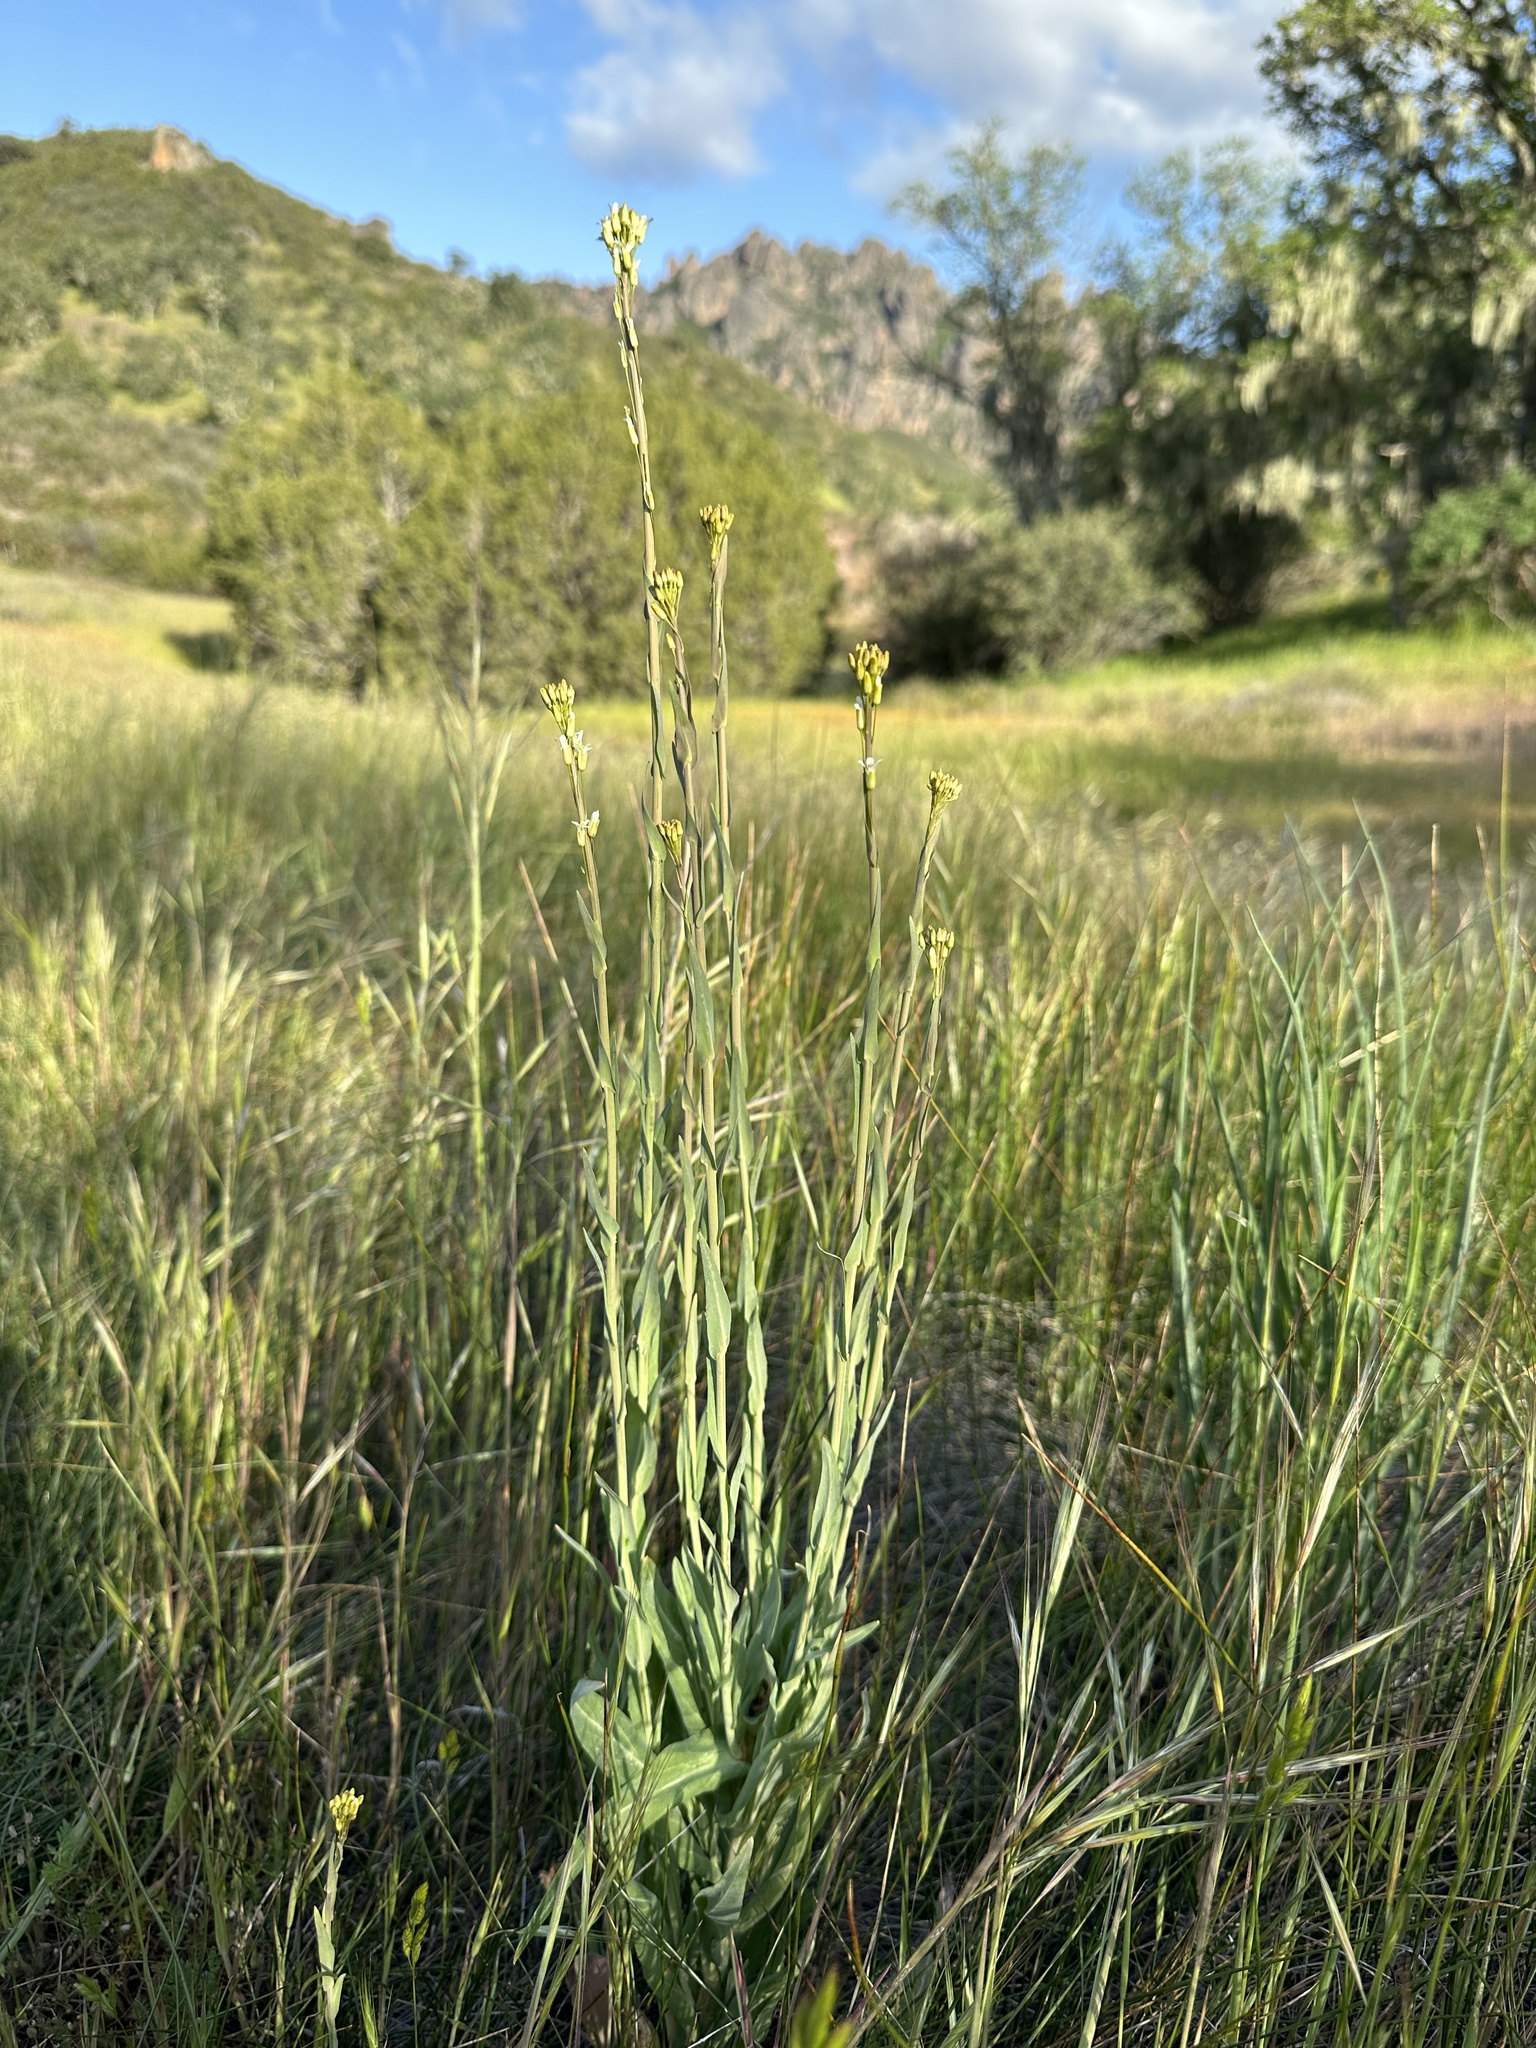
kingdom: Plantae
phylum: Tracheophyta
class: Magnoliopsida
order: Brassicales
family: Brassicaceae
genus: Turritis
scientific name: Turritis glabra
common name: Tower rockcress
